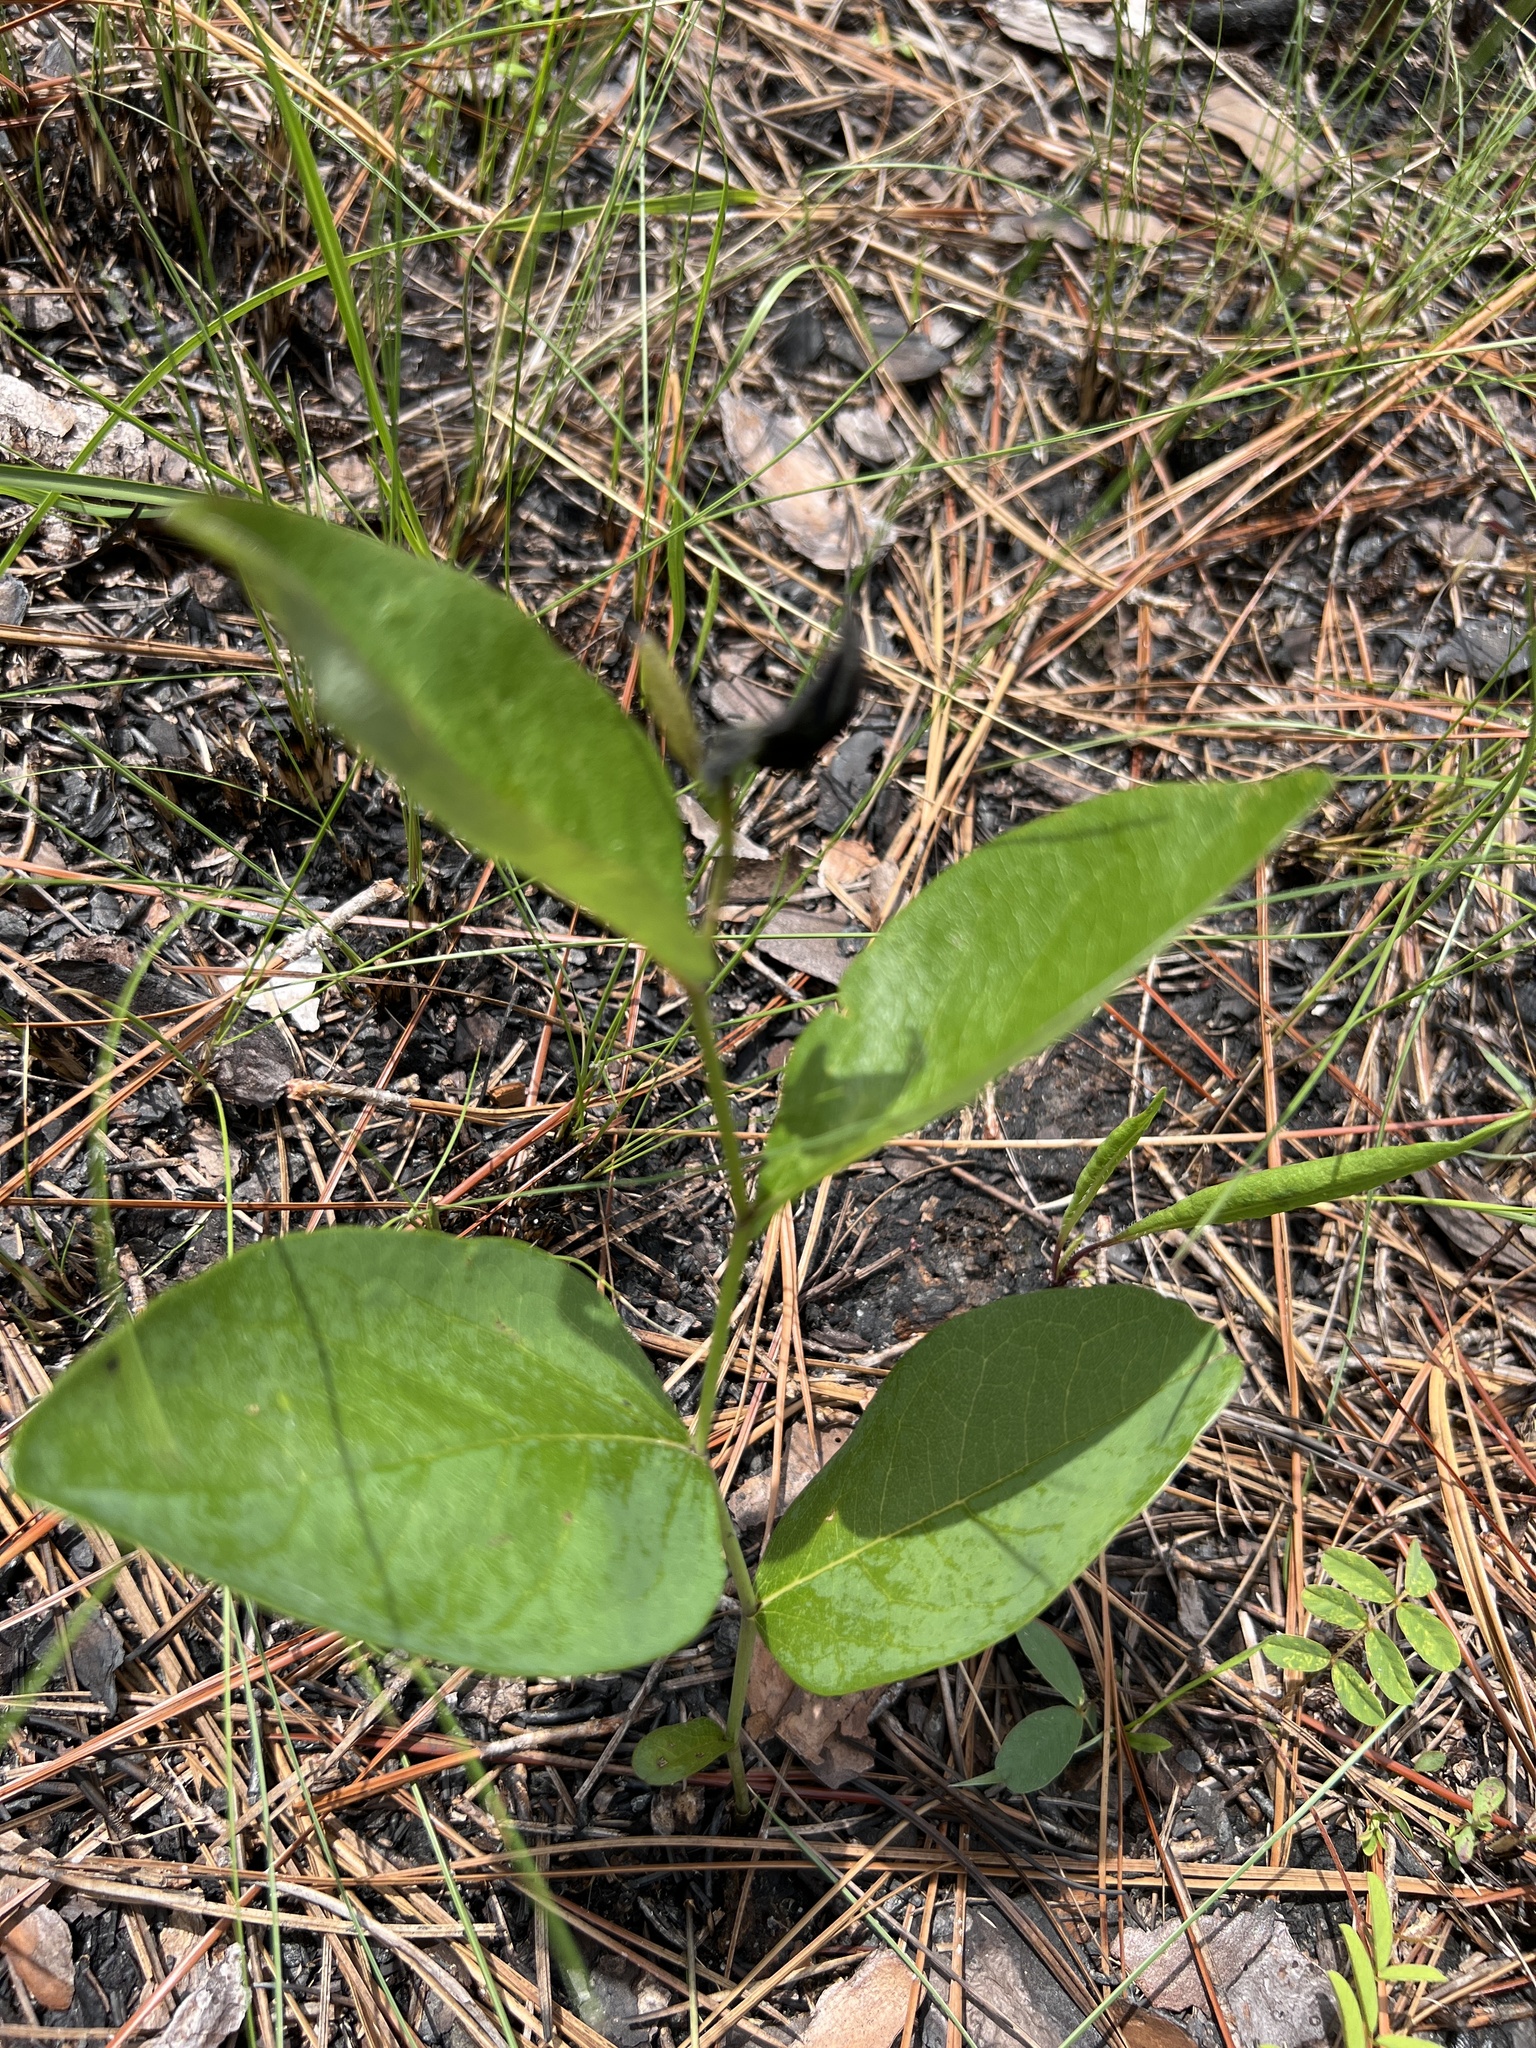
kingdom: Plantae
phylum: Tracheophyta
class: Magnoliopsida
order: Fabales
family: Fabaceae
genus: Baptisia
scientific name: Baptisia simplicifolia
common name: Scareweed
